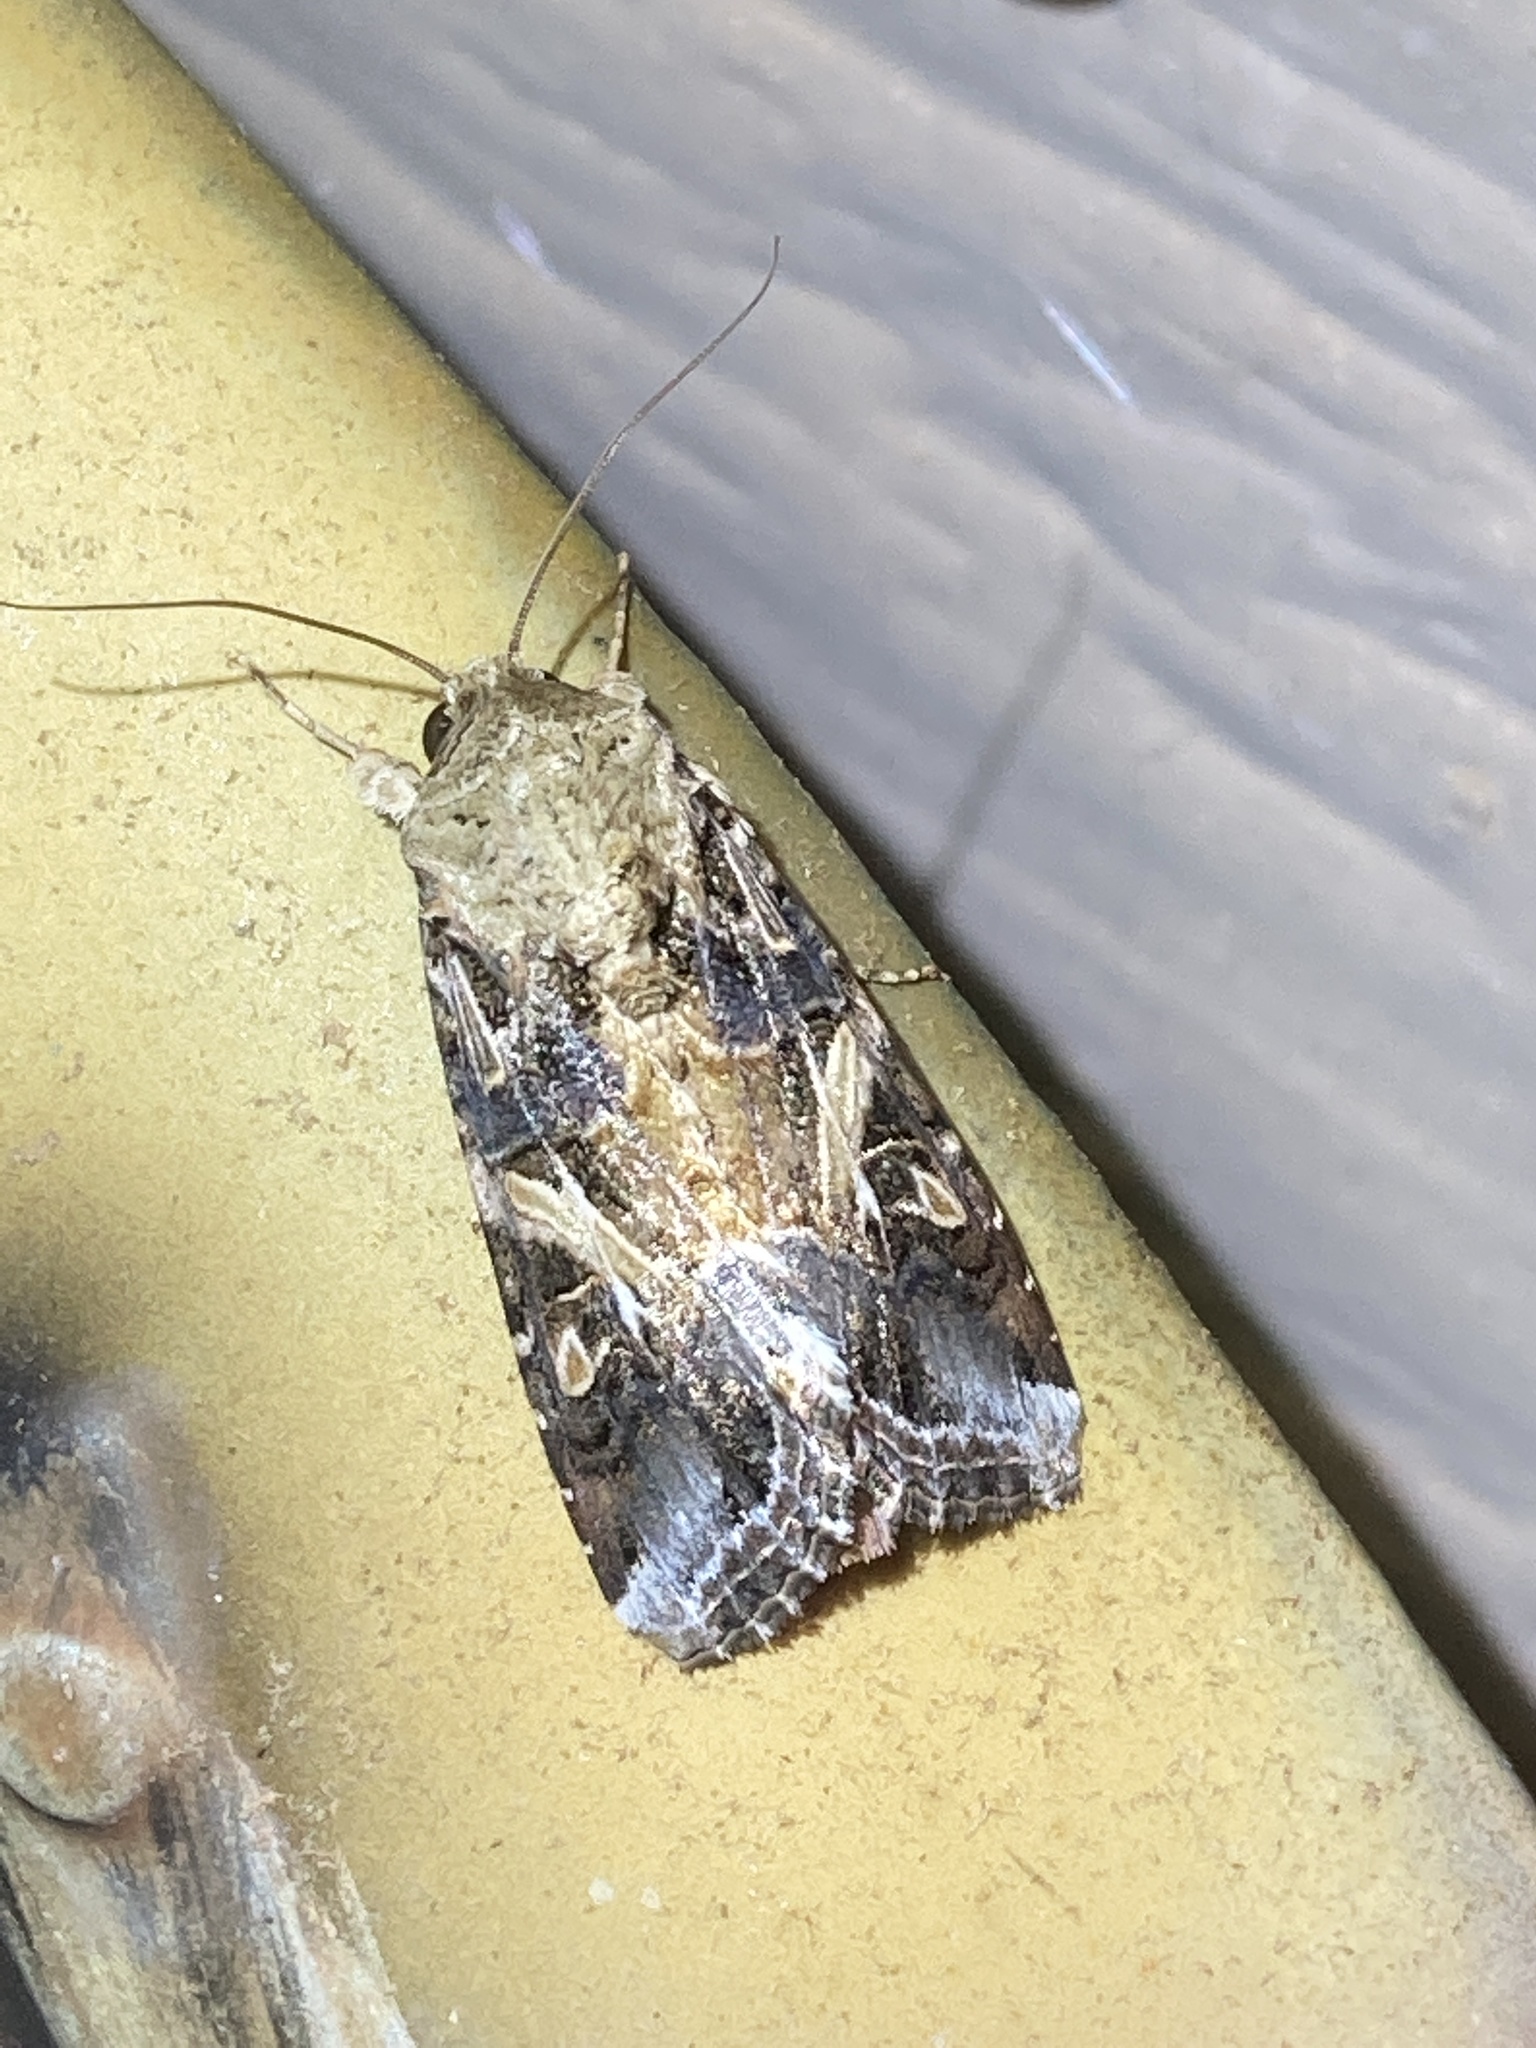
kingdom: Animalia
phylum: Arthropoda
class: Insecta
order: Lepidoptera
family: Noctuidae
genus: Spodoptera
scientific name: Spodoptera ornithogalli
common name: Yellow-striped armyworm
